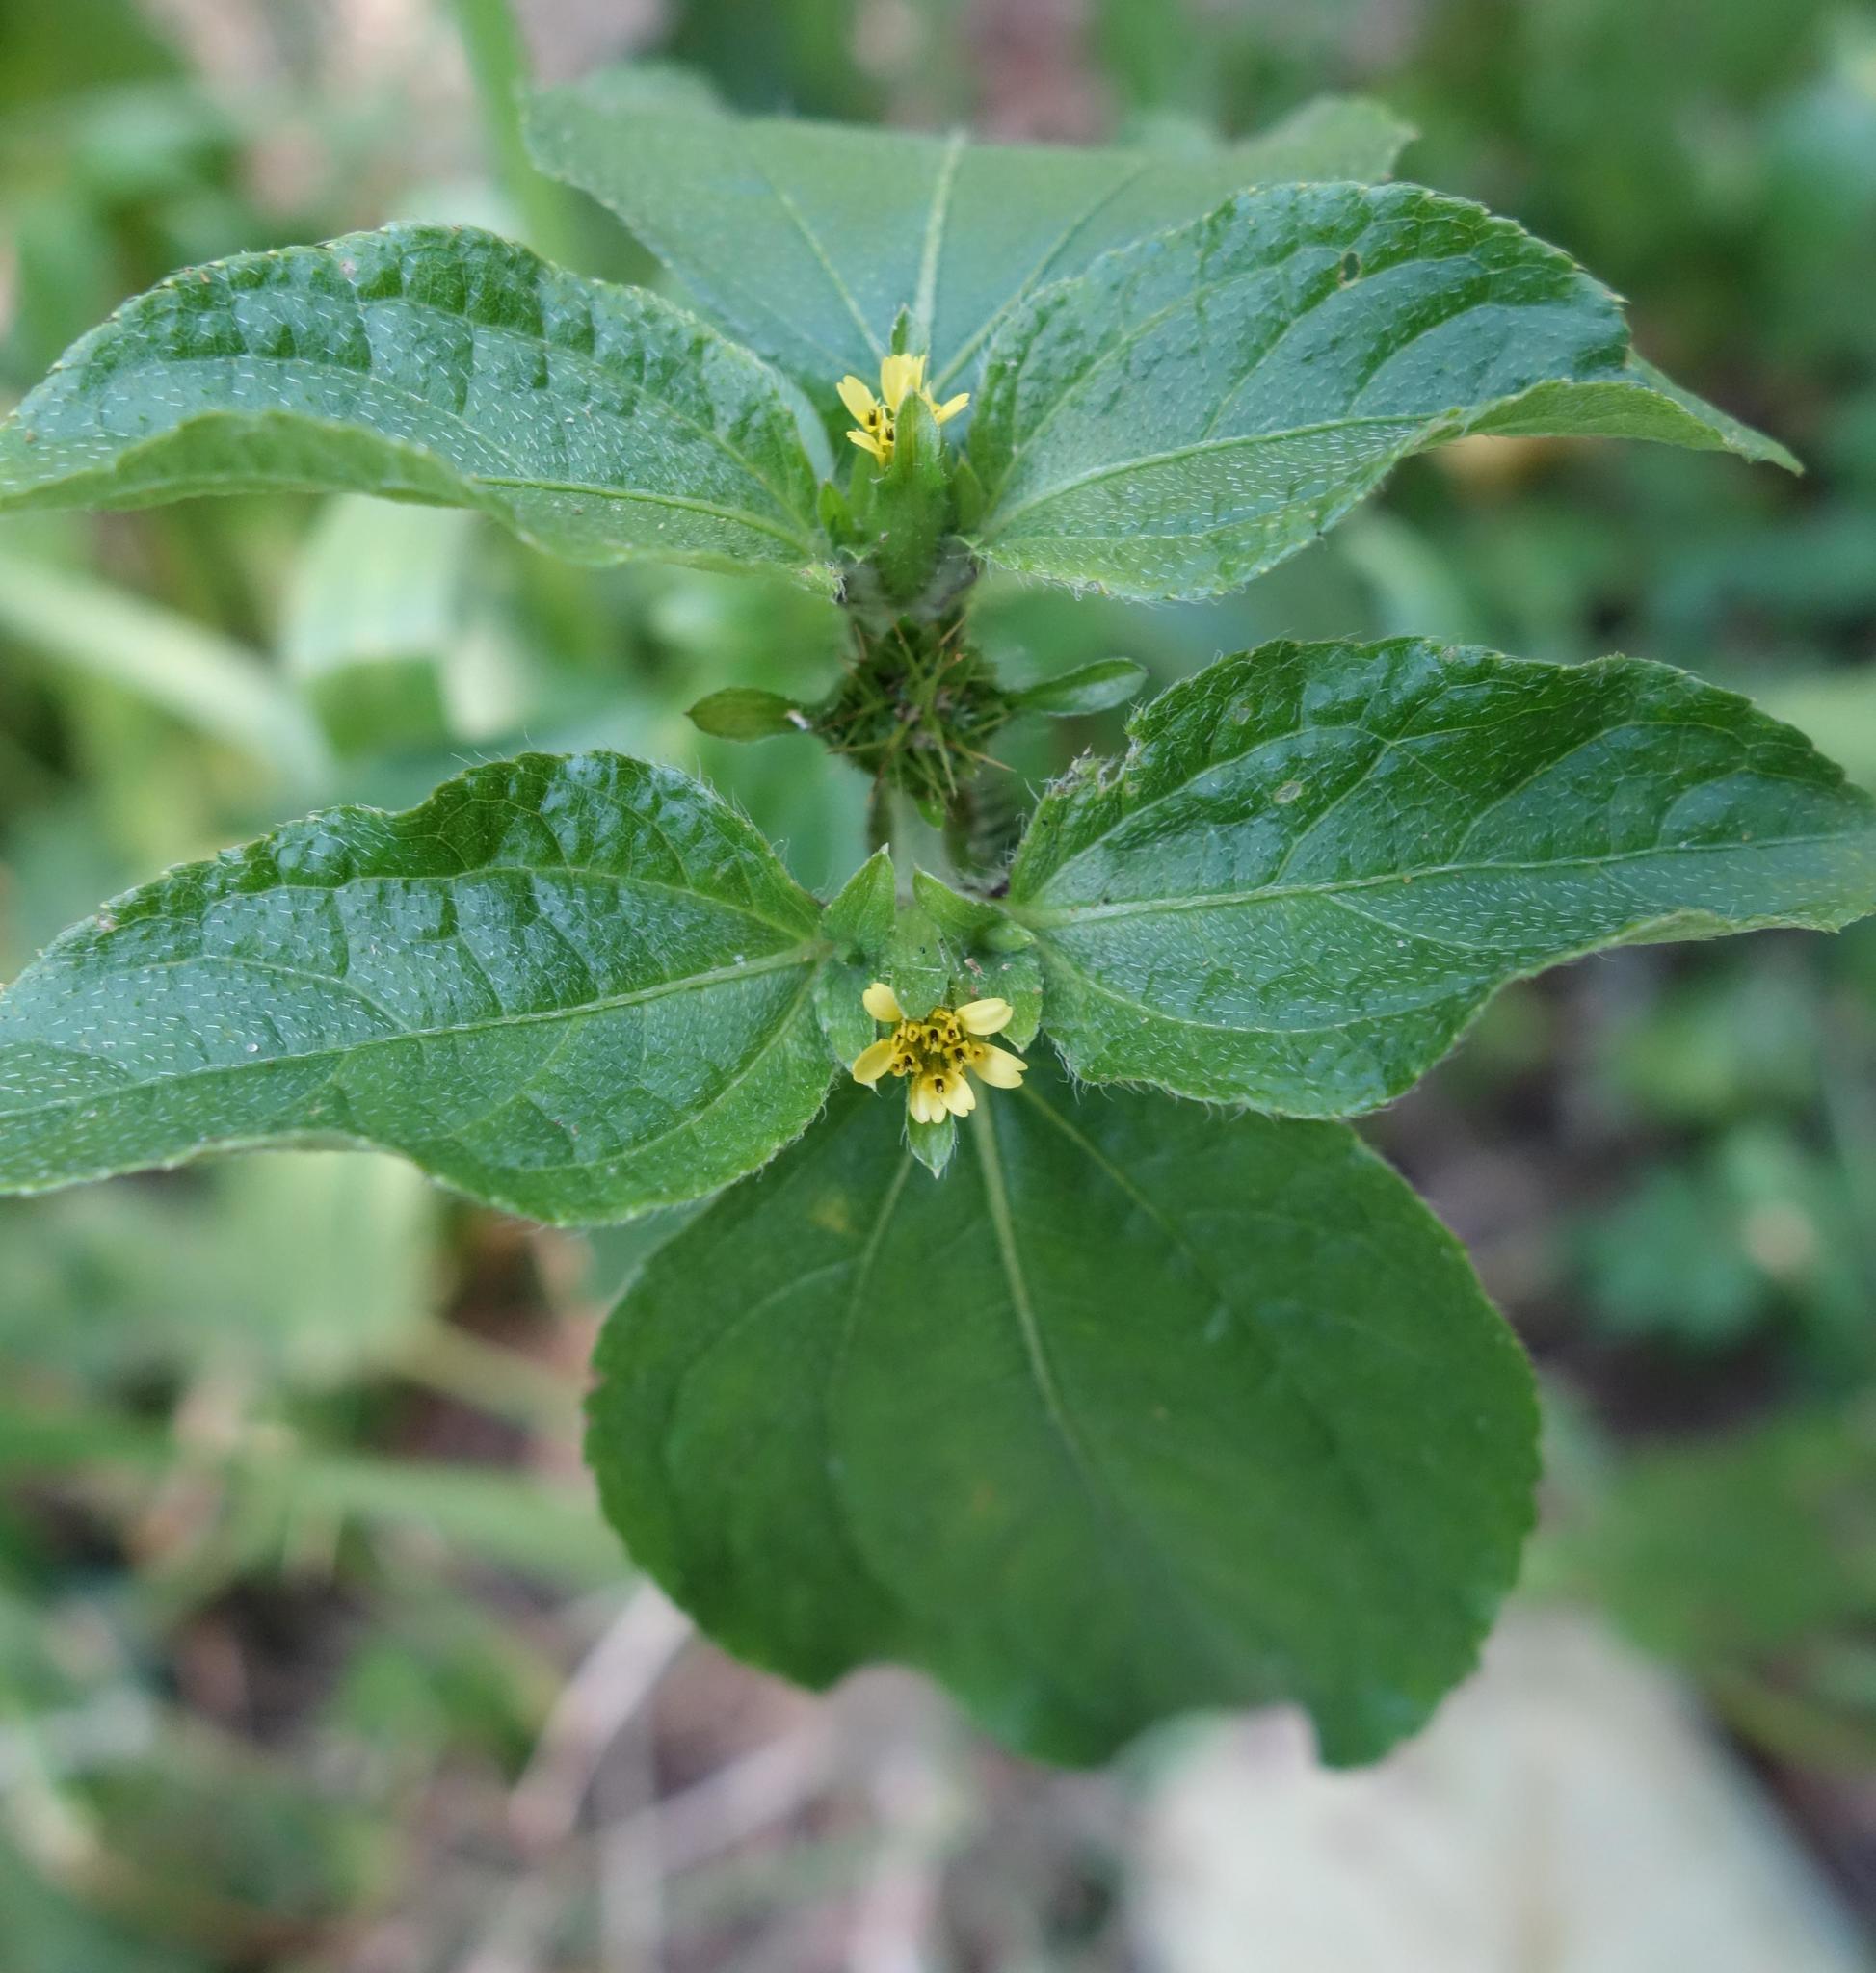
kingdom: Plantae
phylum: Tracheophyta
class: Magnoliopsida
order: Asterales
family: Asteraceae
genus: Calyptocarpus
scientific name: Calyptocarpus vialis
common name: Straggler daisy
